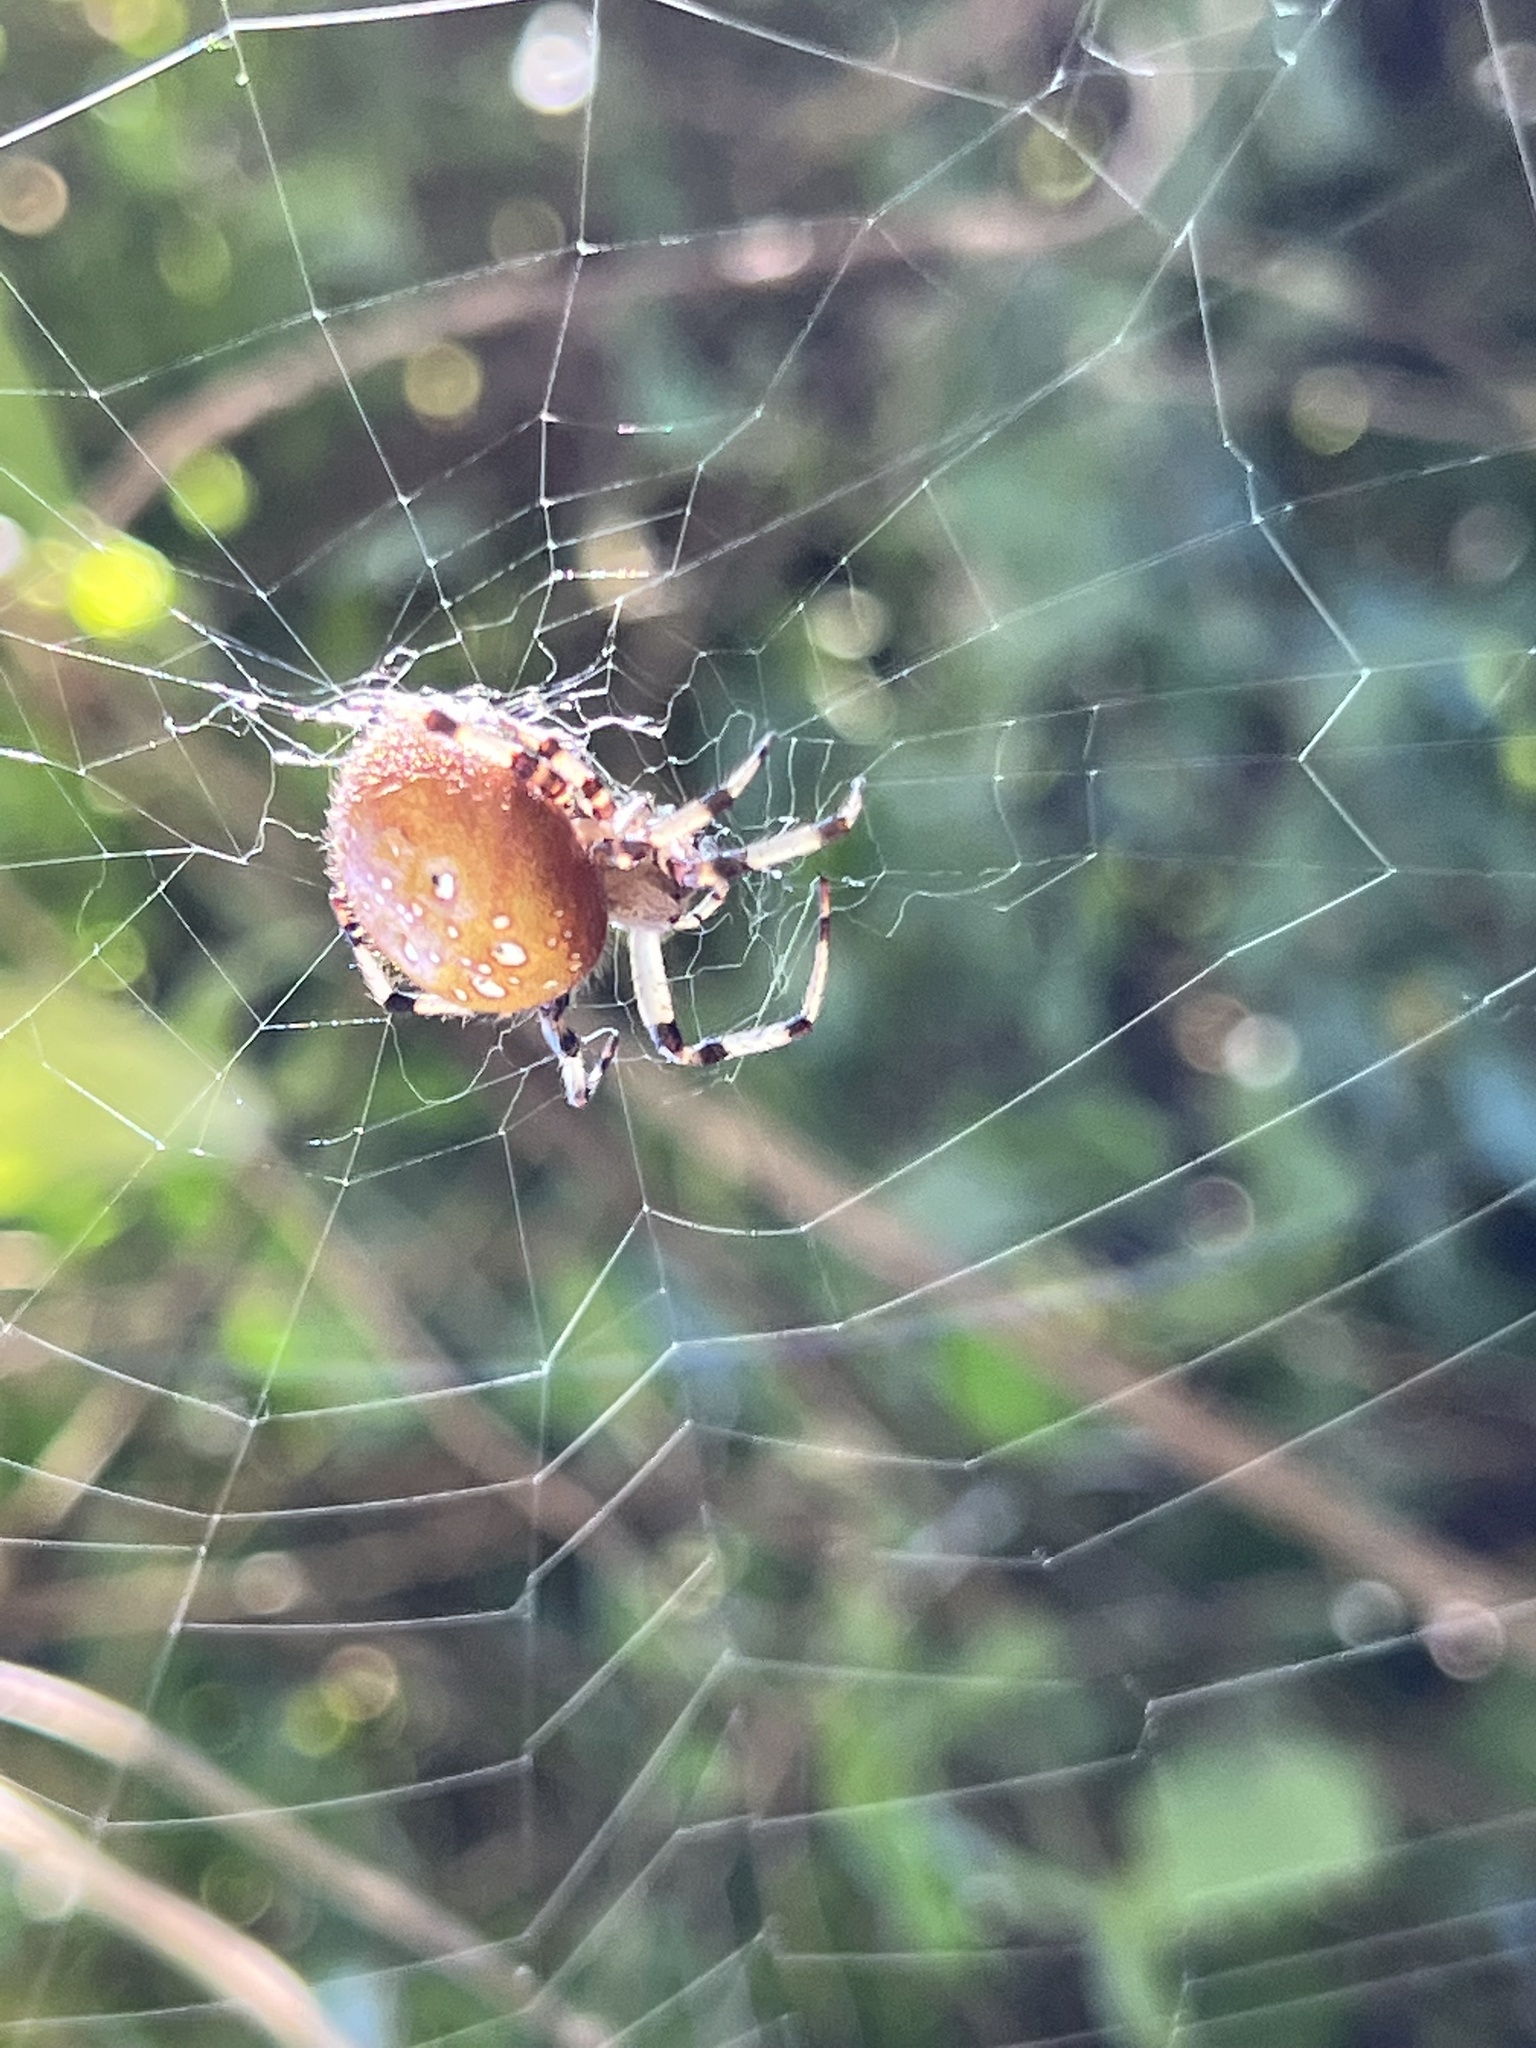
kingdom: Animalia
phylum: Arthropoda
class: Arachnida
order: Araneae
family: Araneidae
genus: Araneus
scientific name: Araneus trifolium
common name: Shamrock orbweaver
